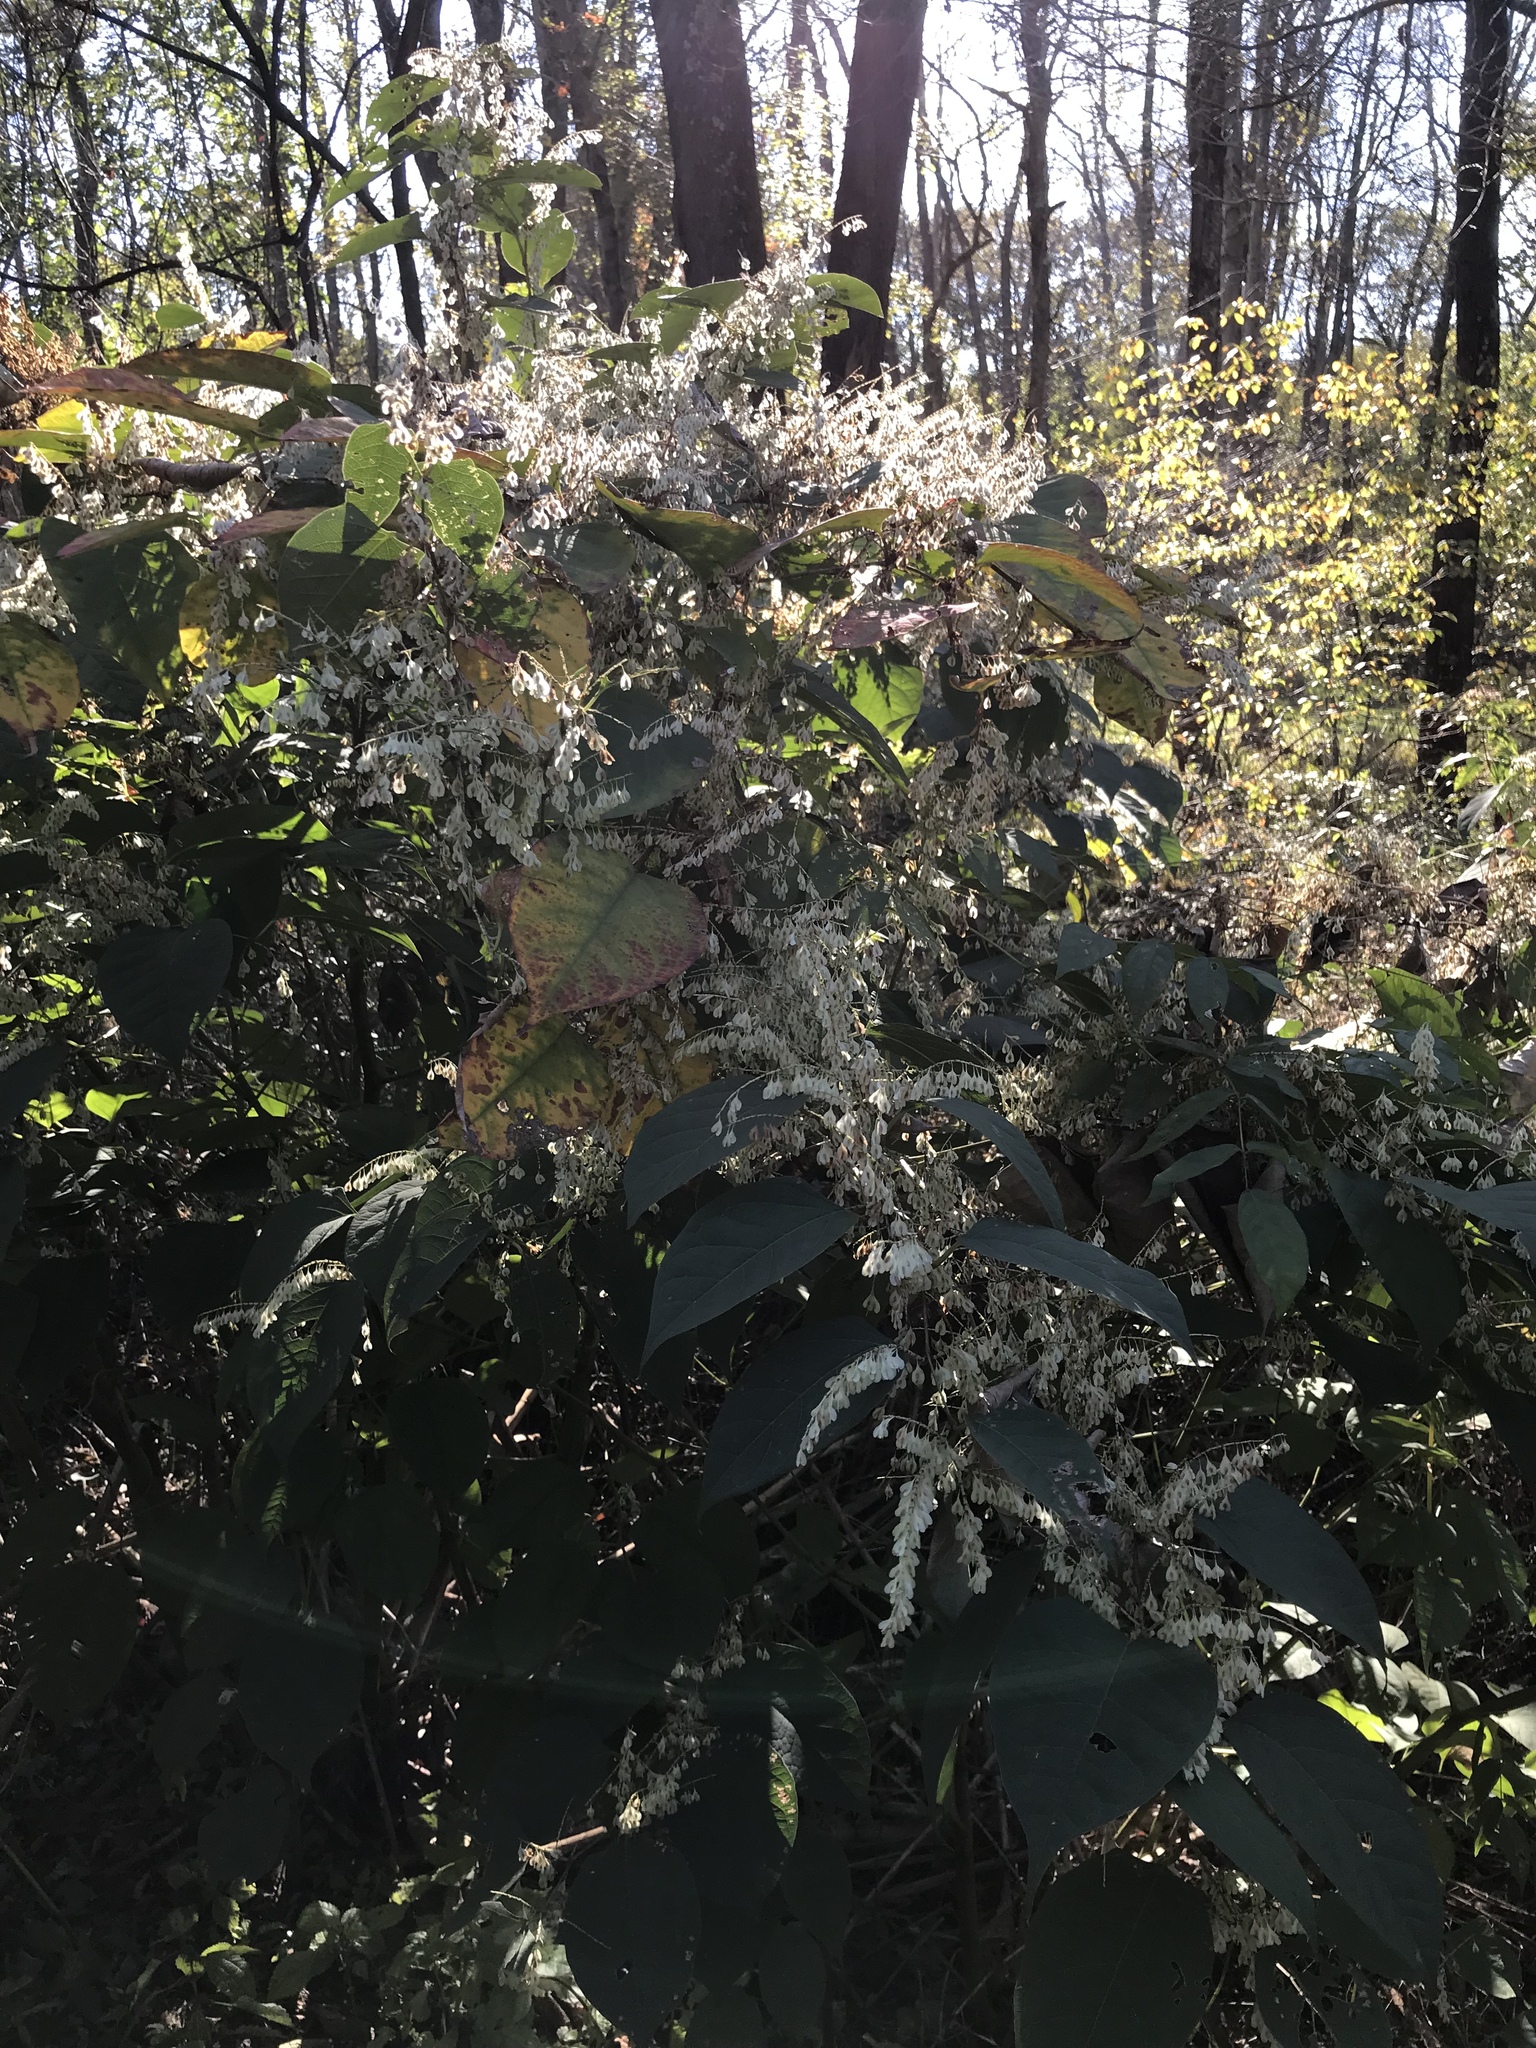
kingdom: Plantae
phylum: Tracheophyta
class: Magnoliopsida
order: Caryophyllales
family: Polygonaceae
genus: Reynoutria
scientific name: Reynoutria japonica
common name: Japanese knotweed
